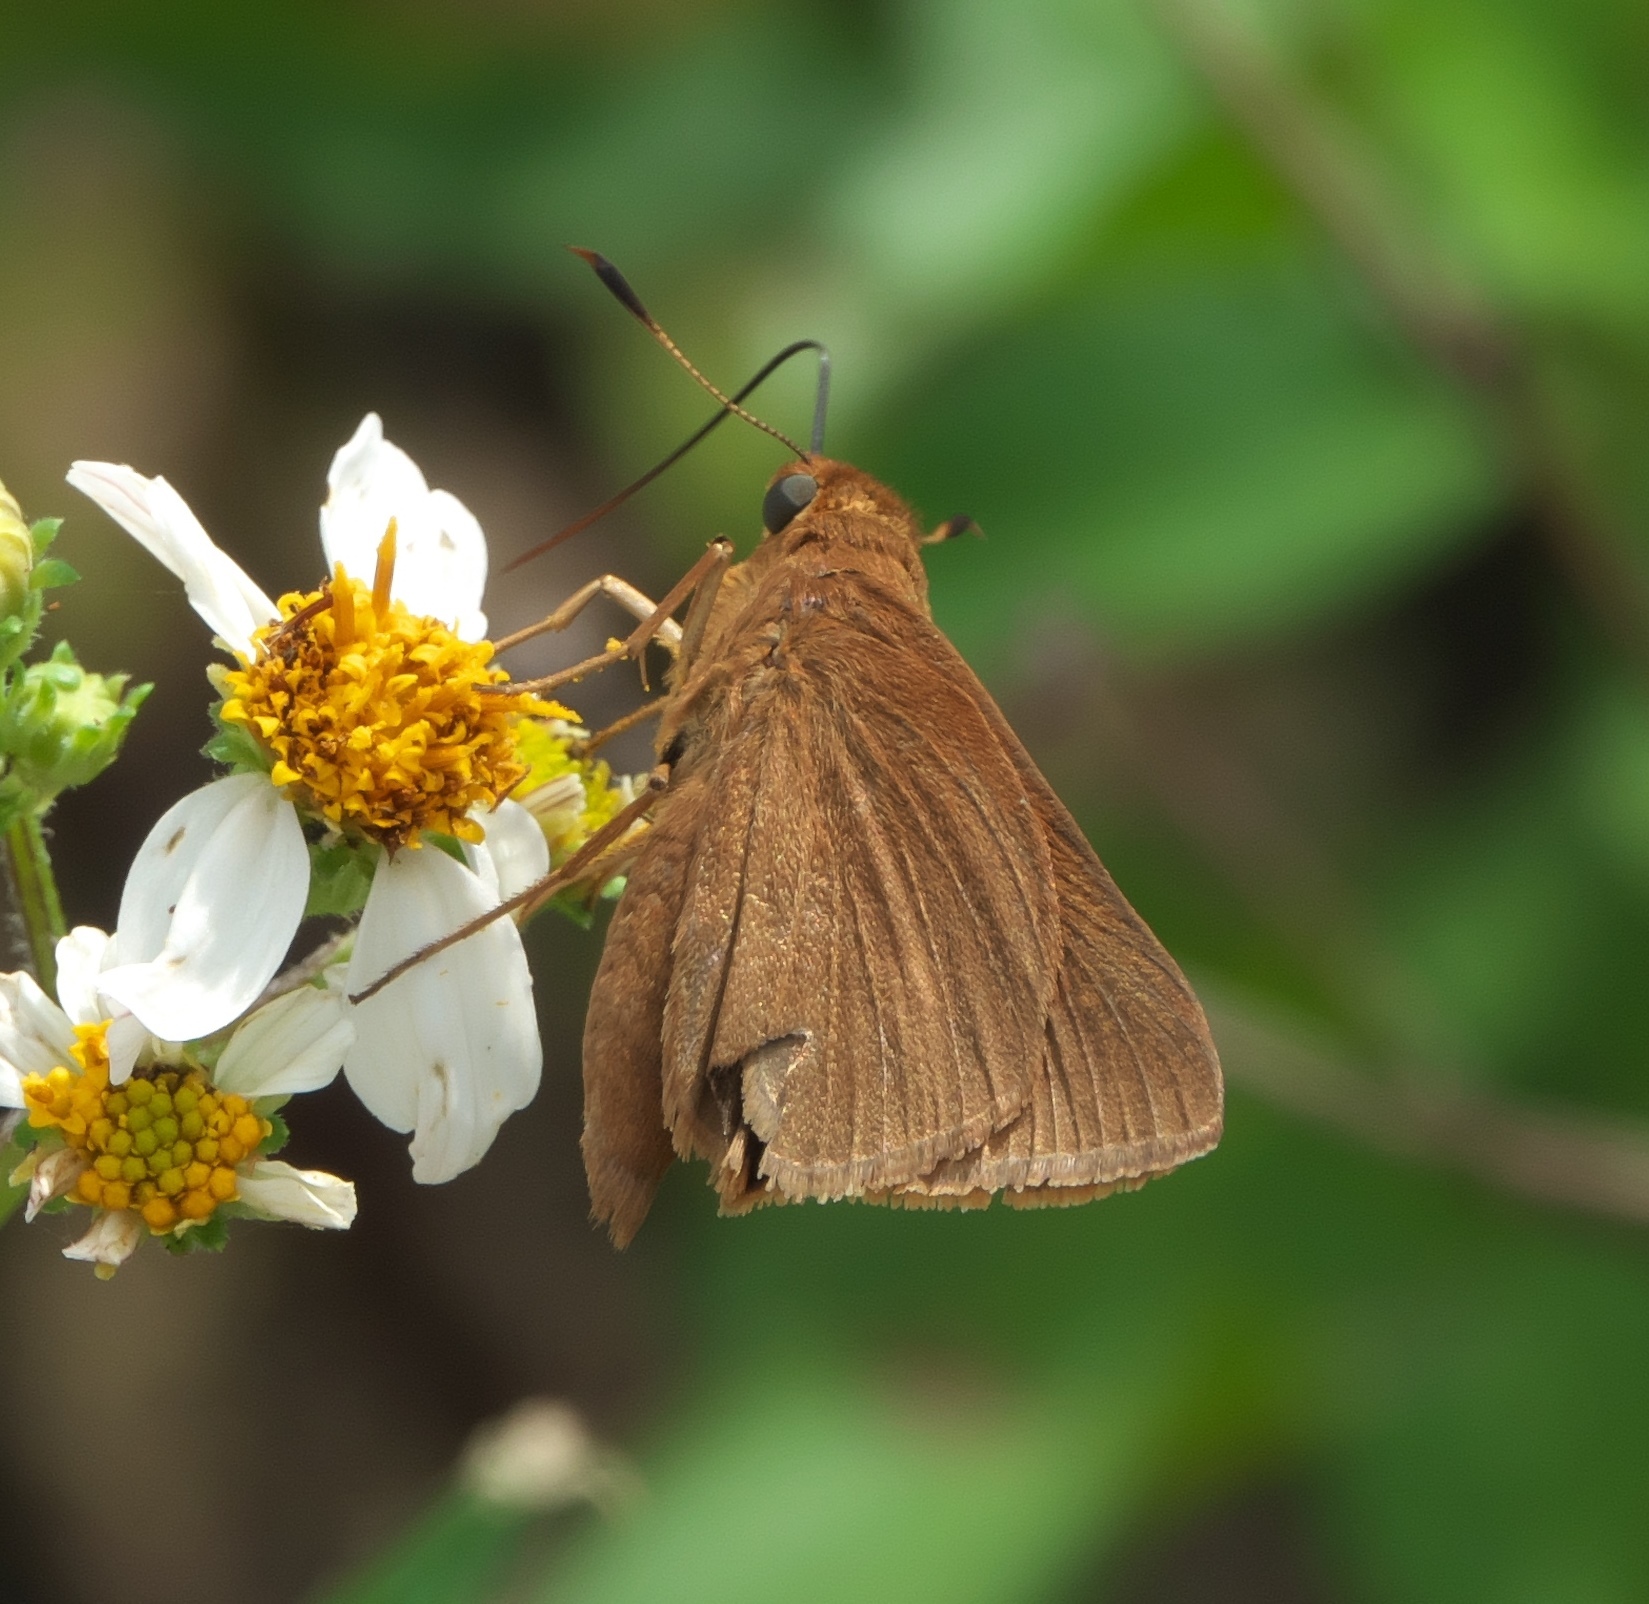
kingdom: Animalia
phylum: Arthropoda
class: Insecta
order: Lepidoptera
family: Hesperiidae
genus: Euphyes
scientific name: Euphyes pilatka
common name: Palatka skipper
